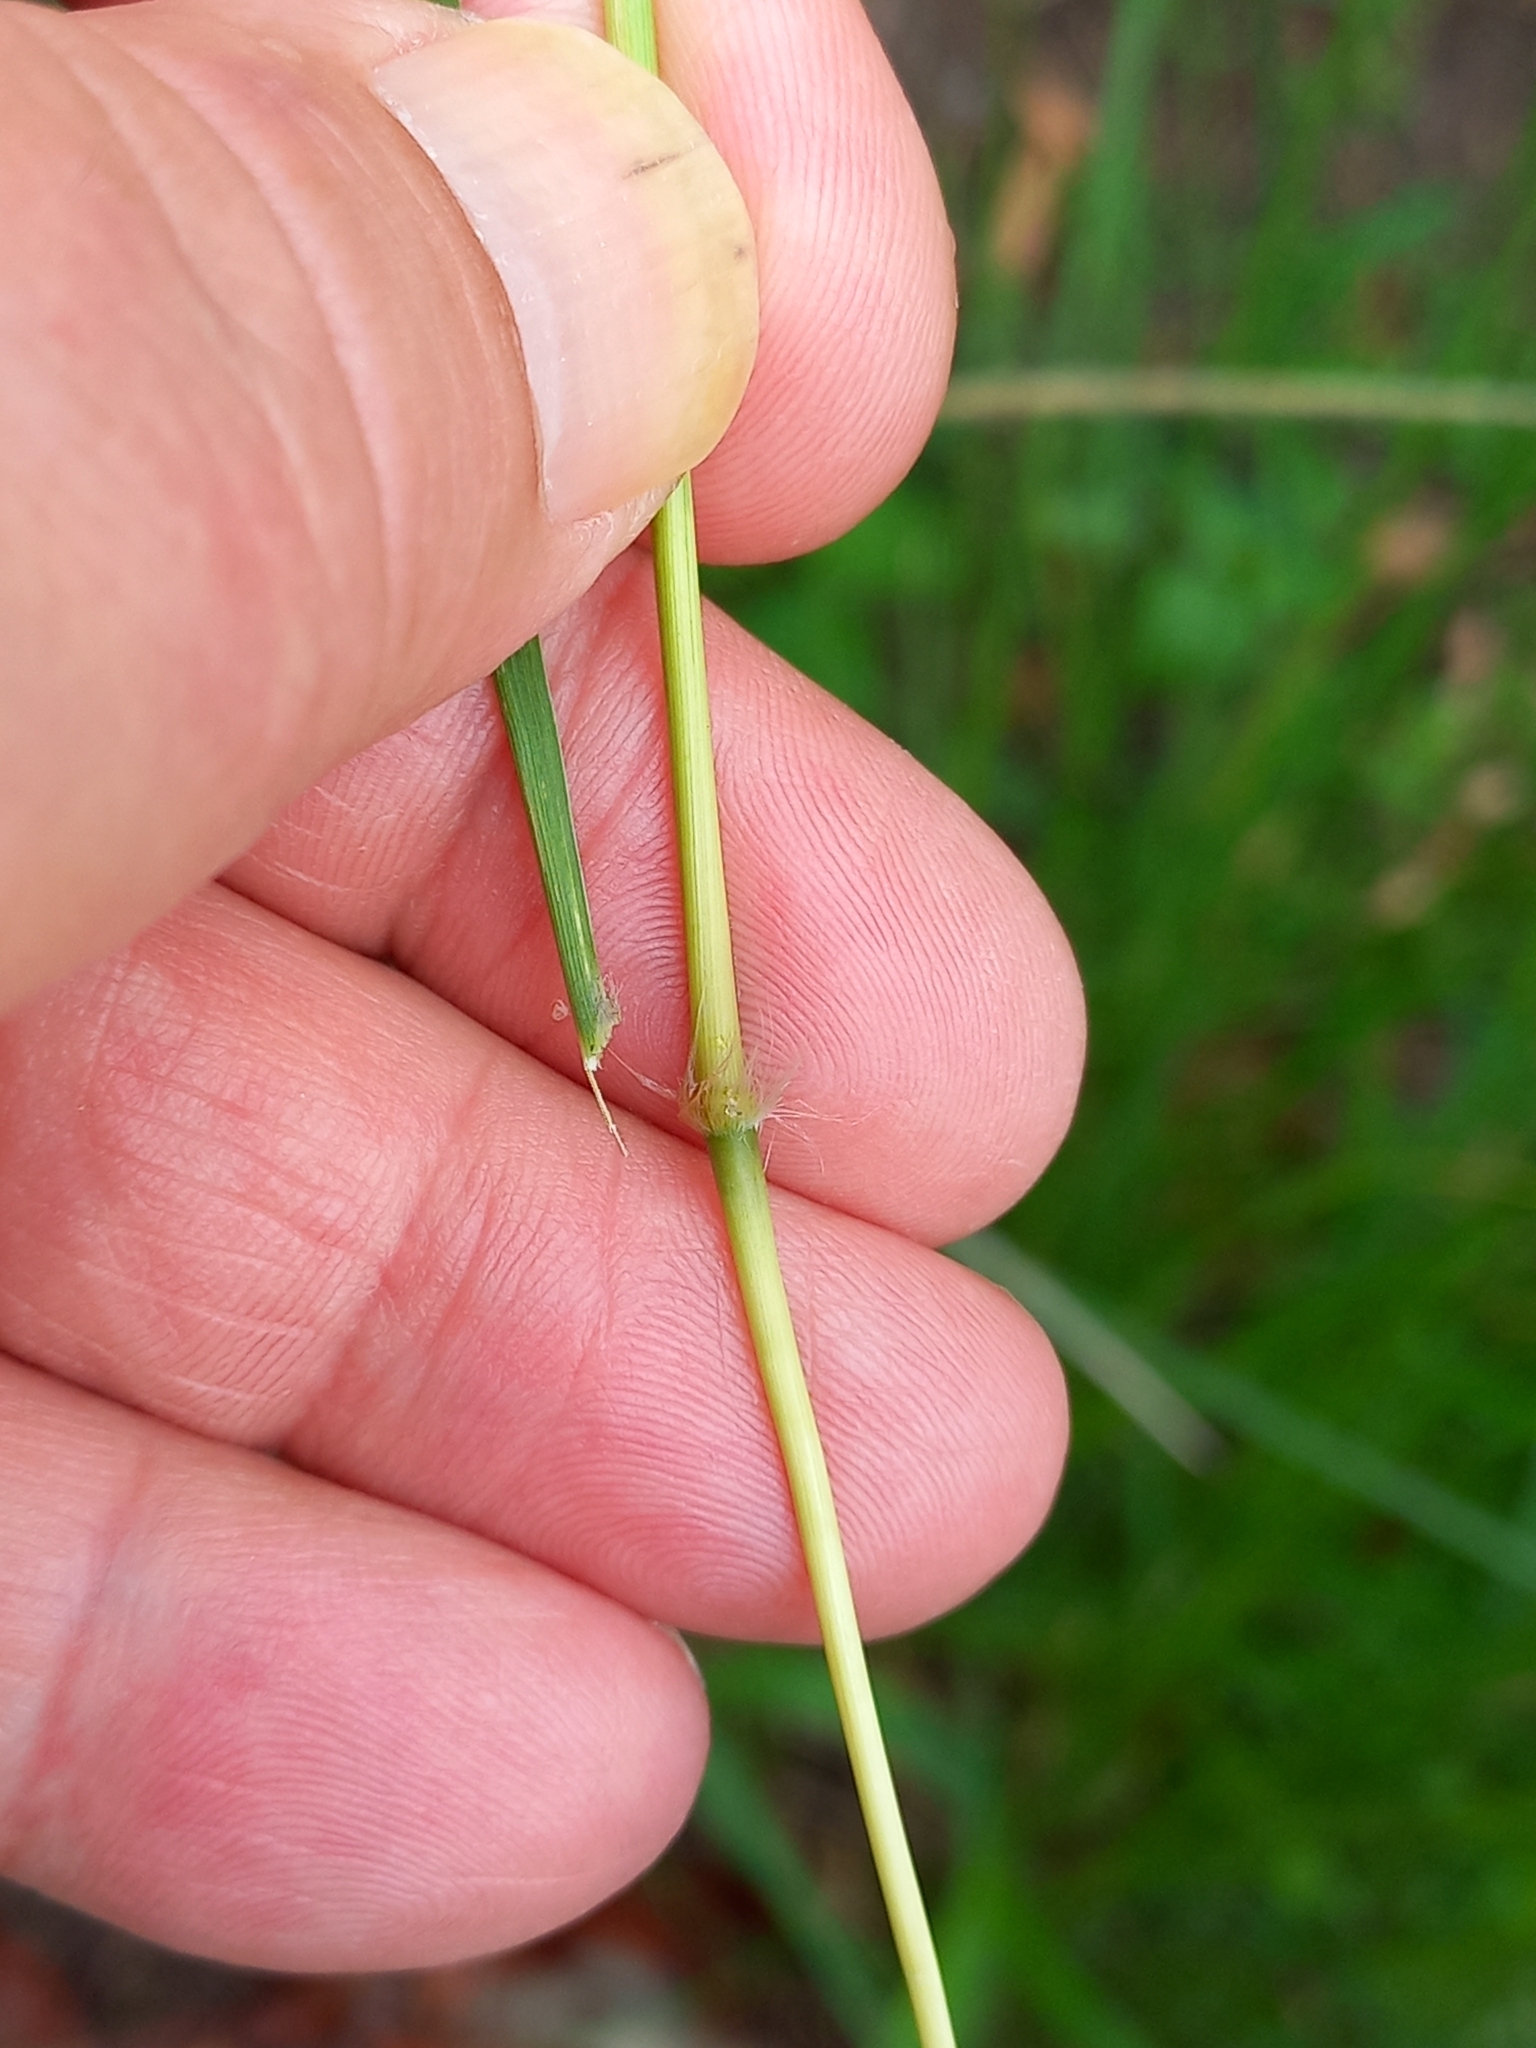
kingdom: Plantae
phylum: Tracheophyta
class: Liliopsida
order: Poales
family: Poaceae
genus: Imperata
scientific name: Imperata cylindrica
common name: Cogongrass
